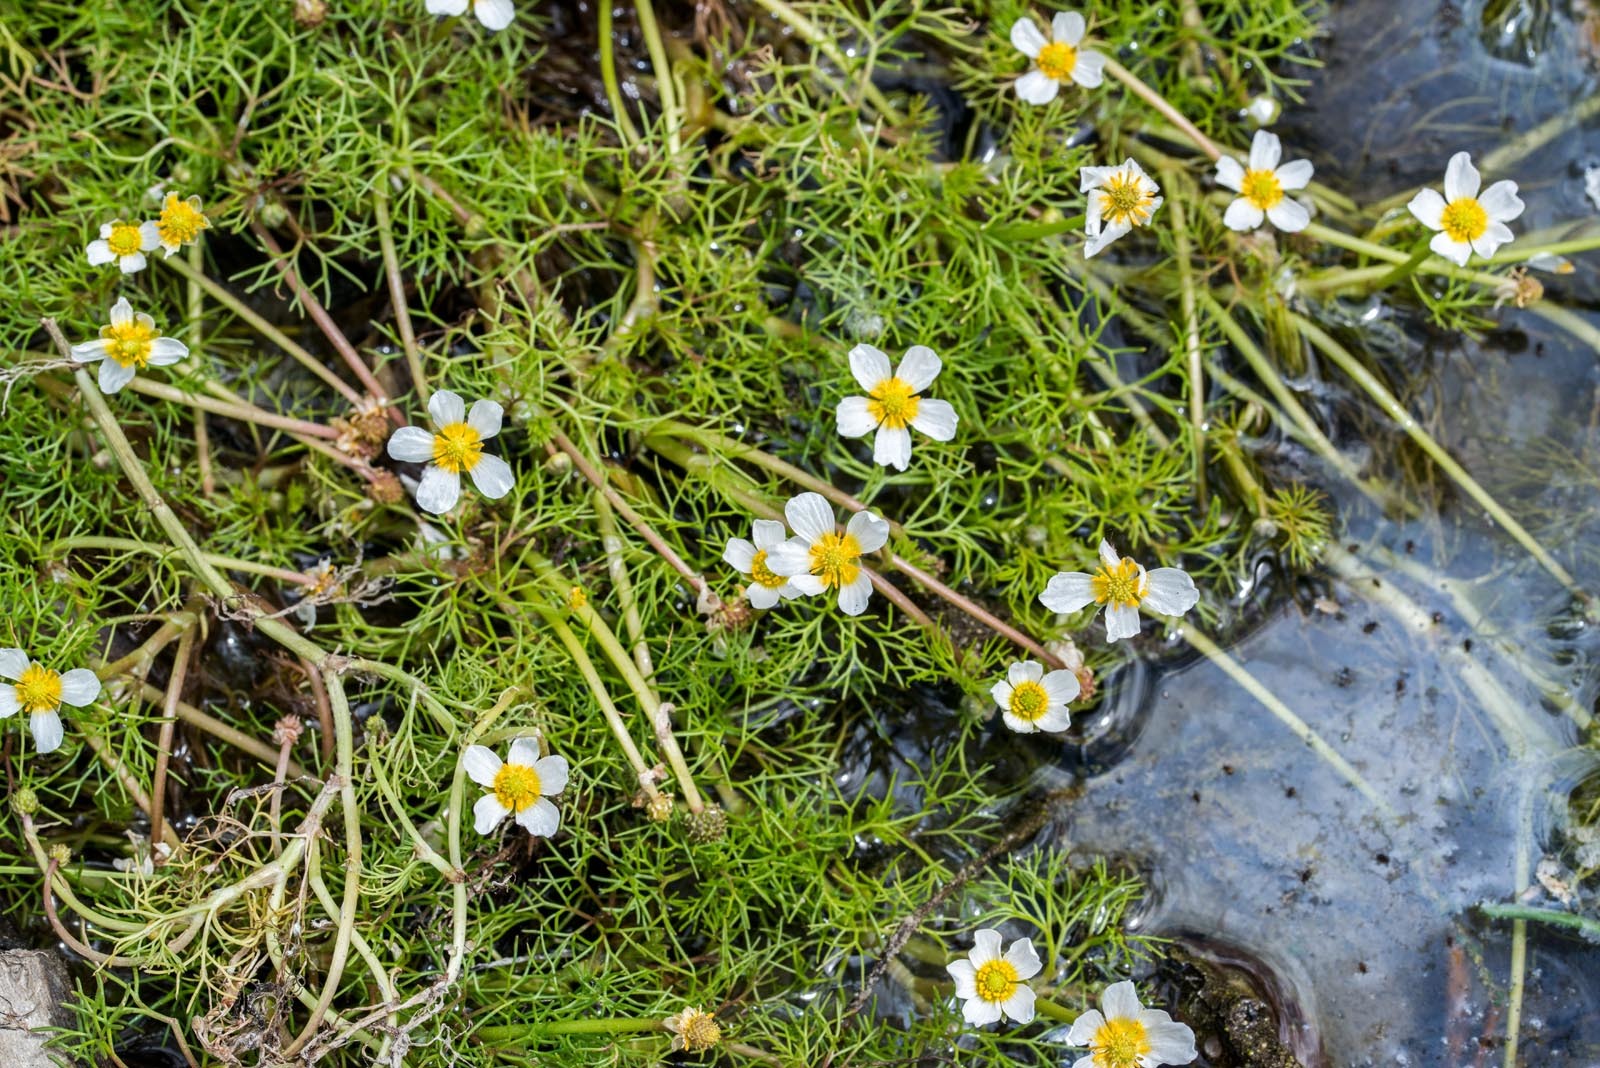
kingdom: Plantae
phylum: Tracheophyta
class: Magnoliopsida
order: Ranunculales
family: Ranunculaceae
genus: Ranunculus
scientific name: Ranunculus trichophyllus
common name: Thread-leaved water-crowfoot
